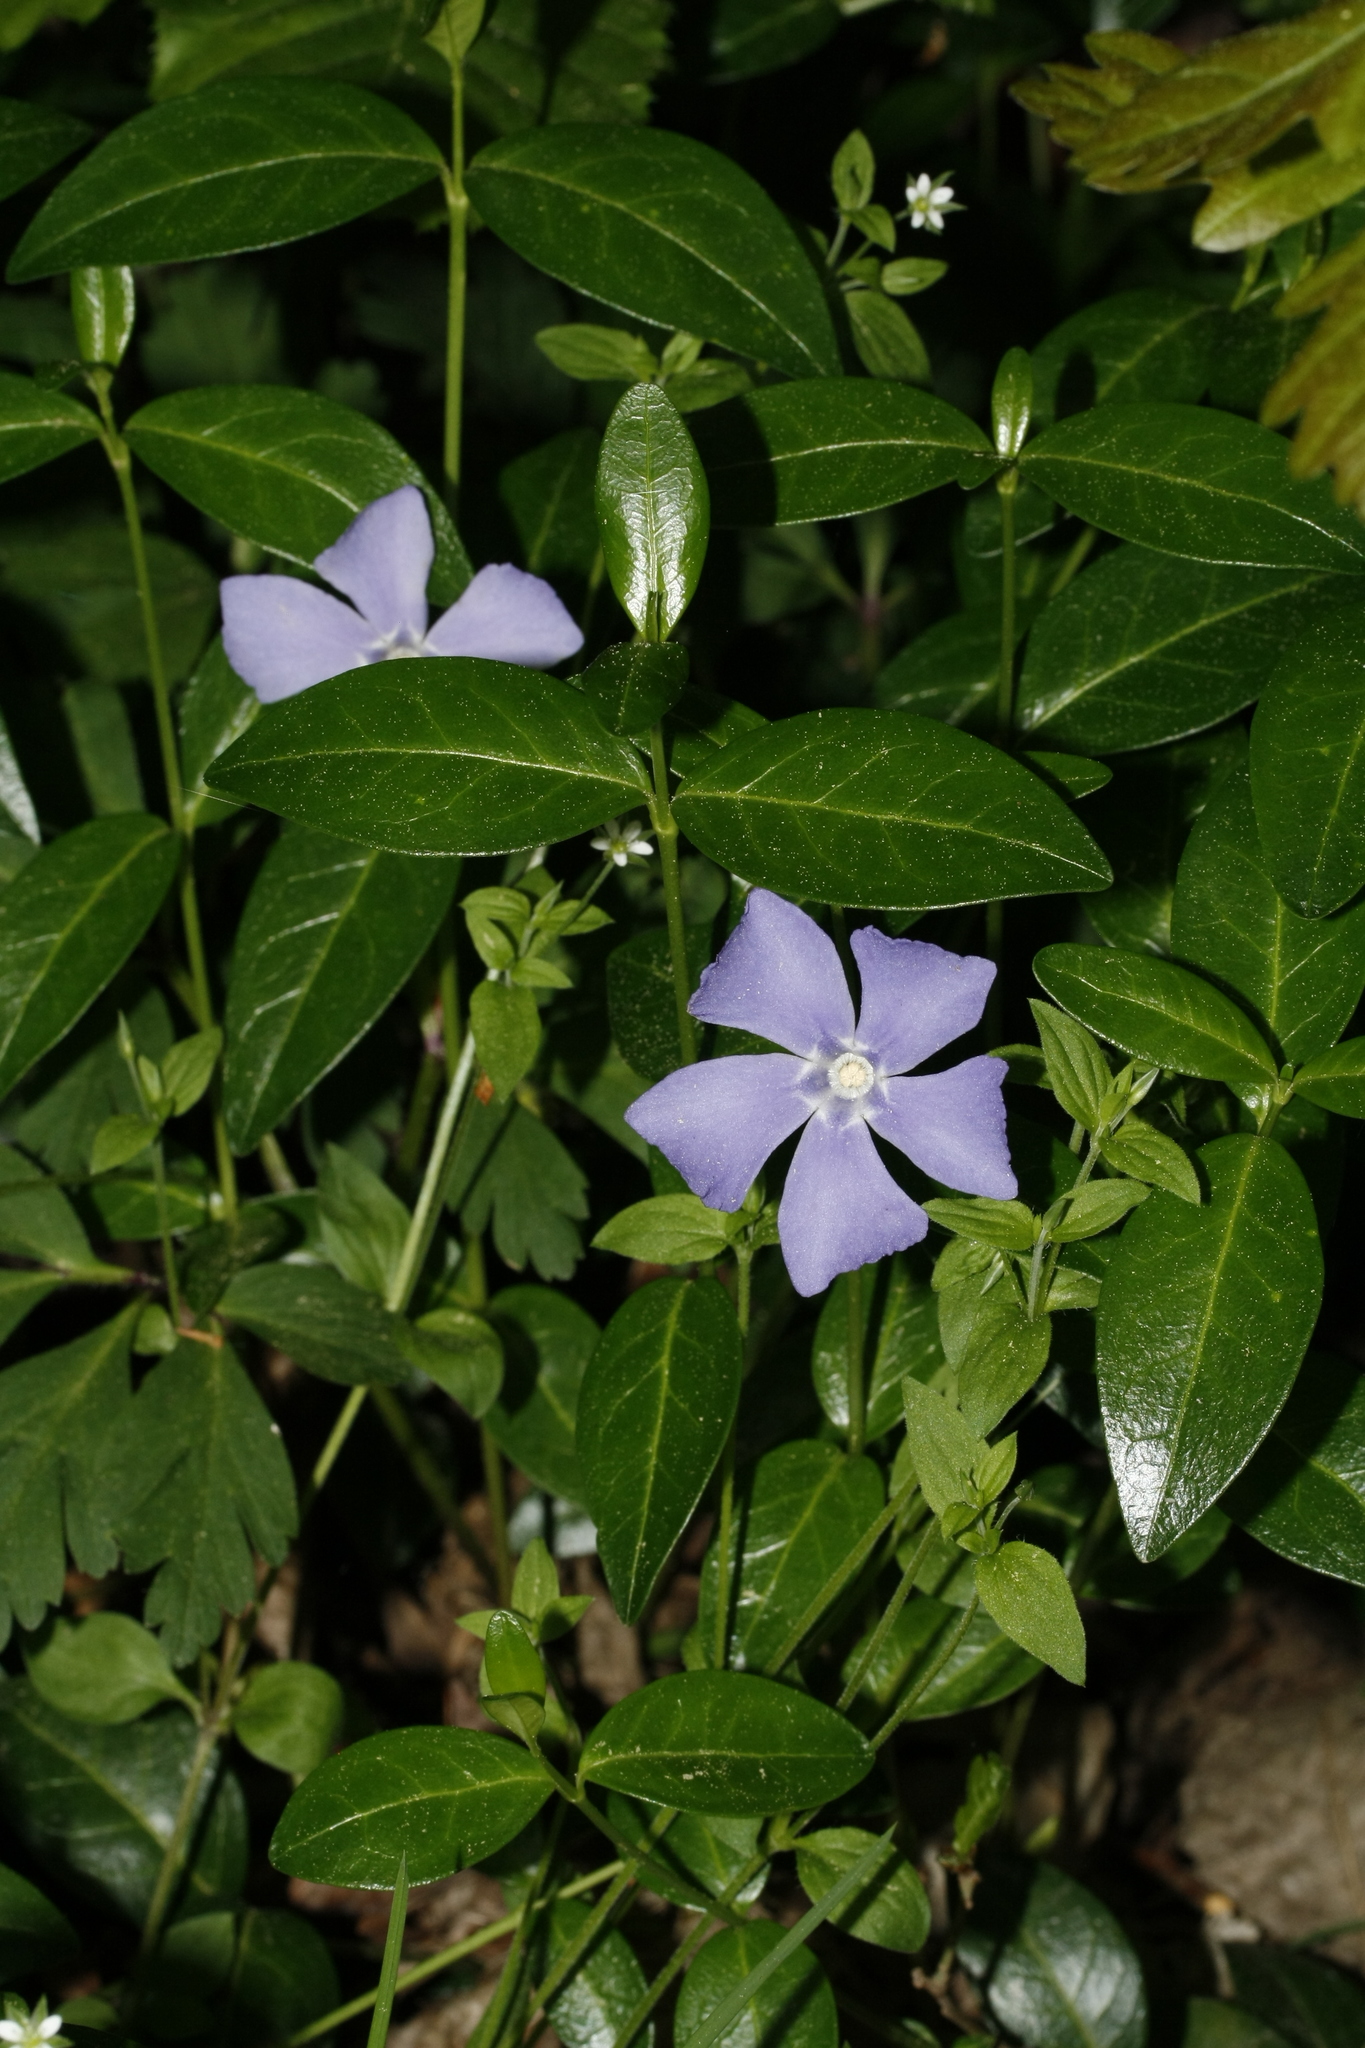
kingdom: Plantae
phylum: Tracheophyta
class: Magnoliopsida
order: Gentianales
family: Apocynaceae
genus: Vinca
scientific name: Vinca minor
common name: Lesser periwinkle
